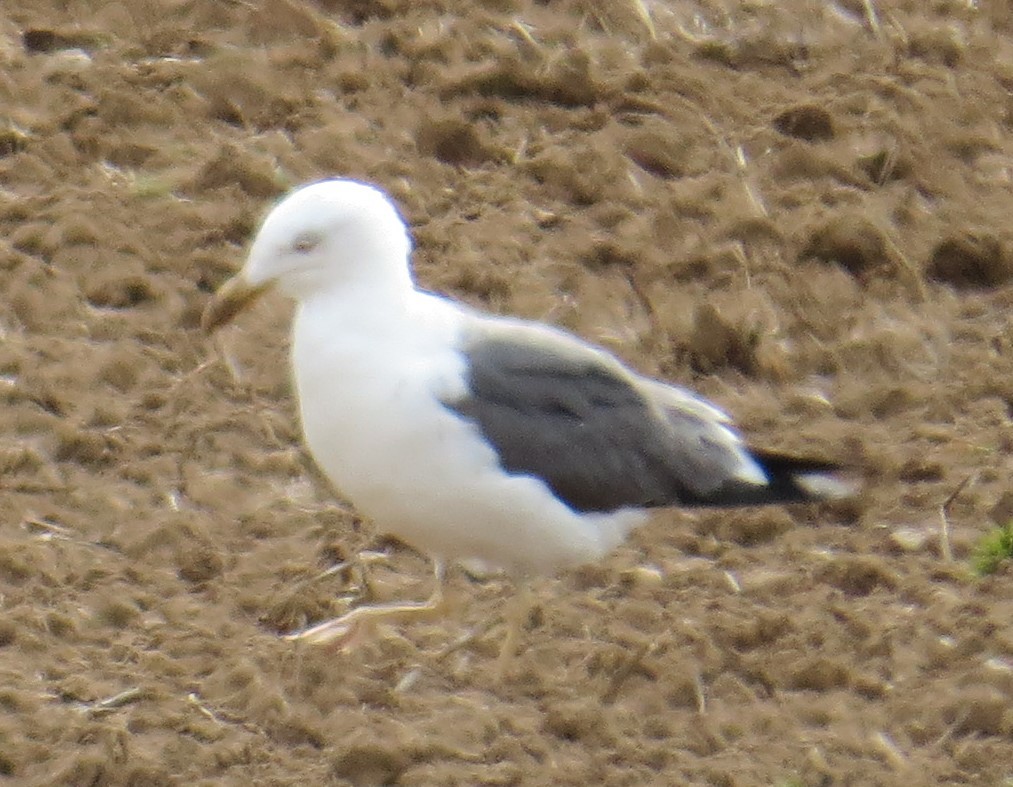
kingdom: Animalia
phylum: Chordata
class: Aves
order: Charadriiformes
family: Laridae
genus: Larus
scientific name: Larus marinus
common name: Great black-backed gull
